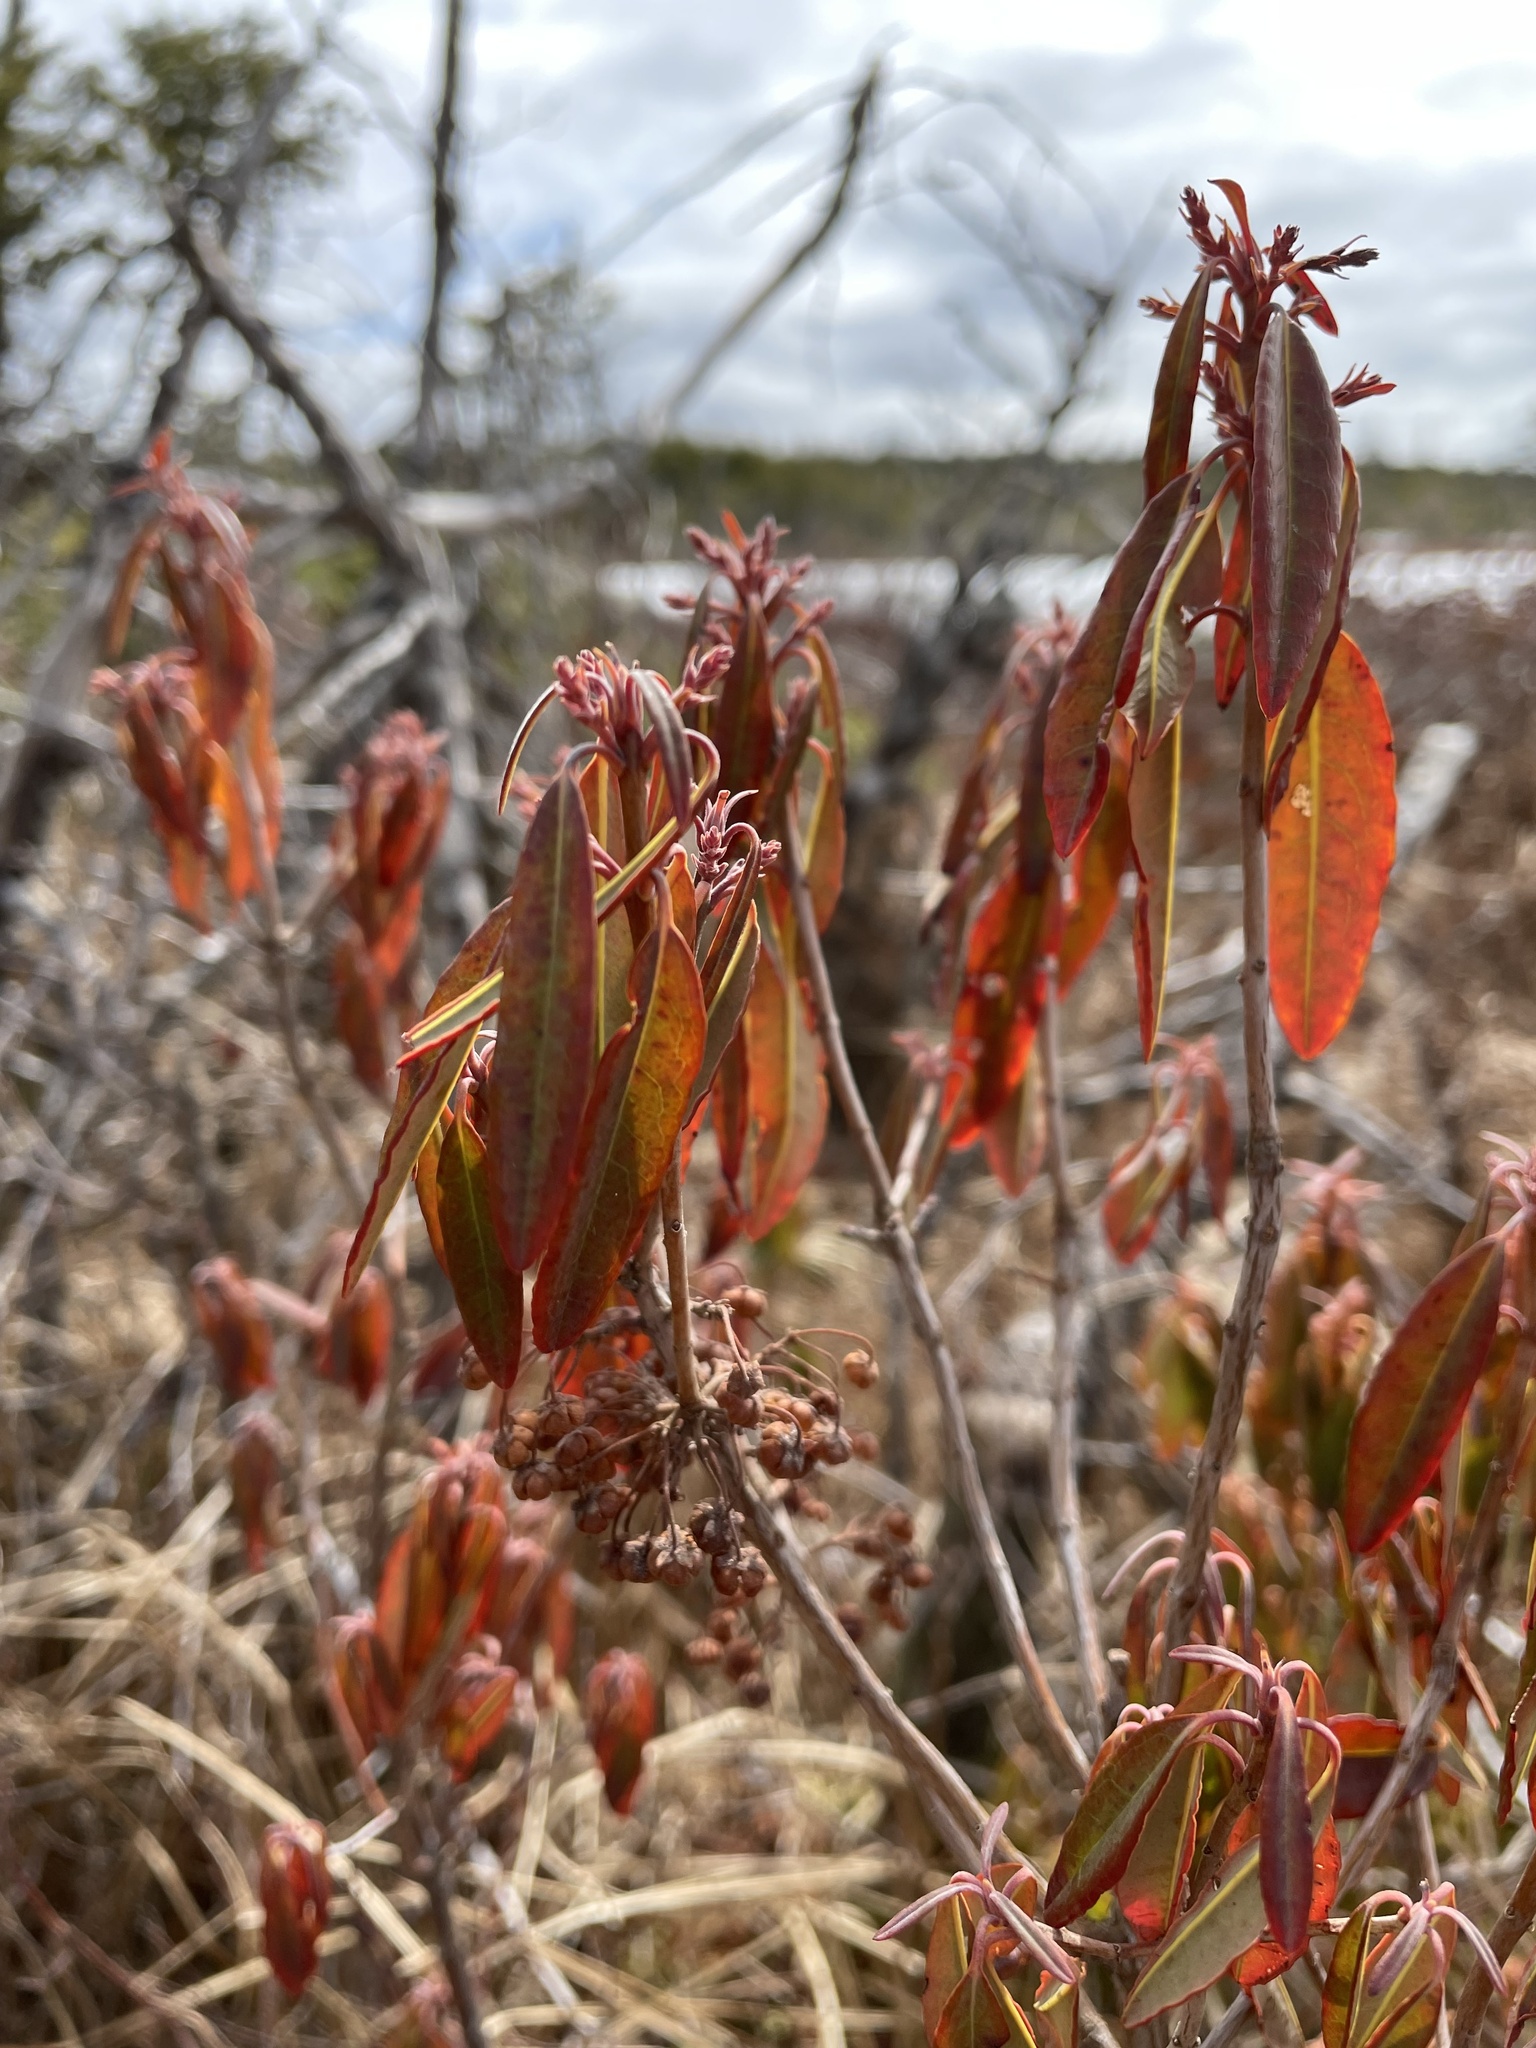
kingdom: Plantae
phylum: Tracheophyta
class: Magnoliopsida
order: Ericales
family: Ericaceae
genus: Kalmia
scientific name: Kalmia angustifolia
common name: Sheep-laurel
